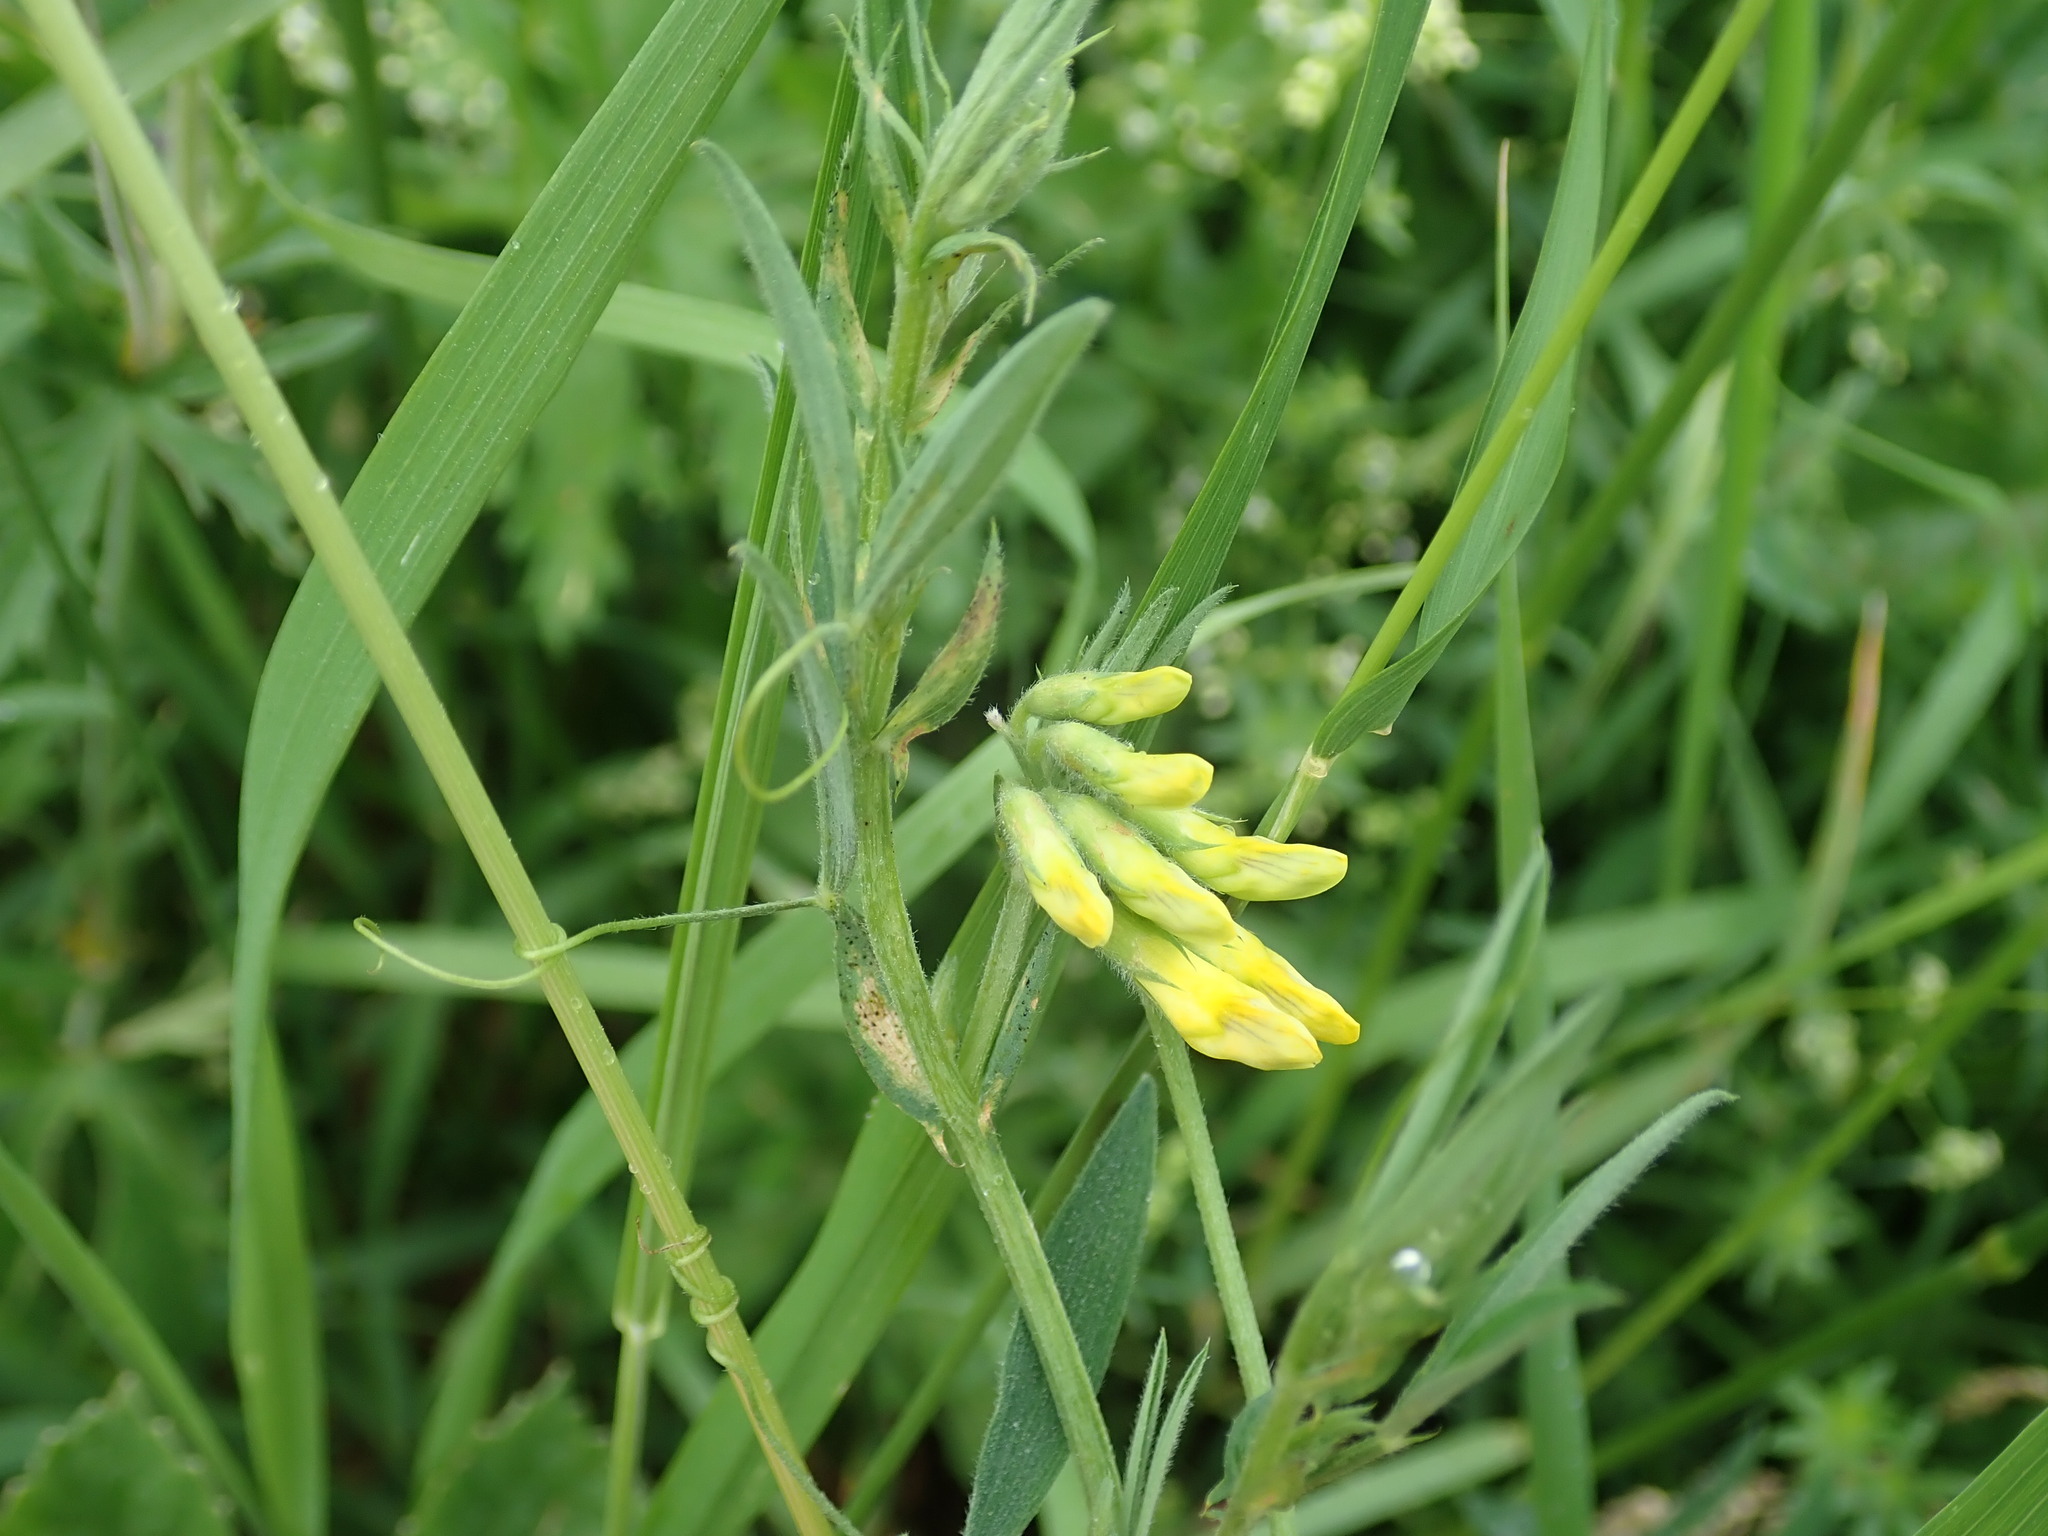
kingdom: Plantae
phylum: Tracheophyta
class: Magnoliopsida
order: Fabales
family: Fabaceae
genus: Lathyrus
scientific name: Lathyrus pratensis
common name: Meadow vetchling
